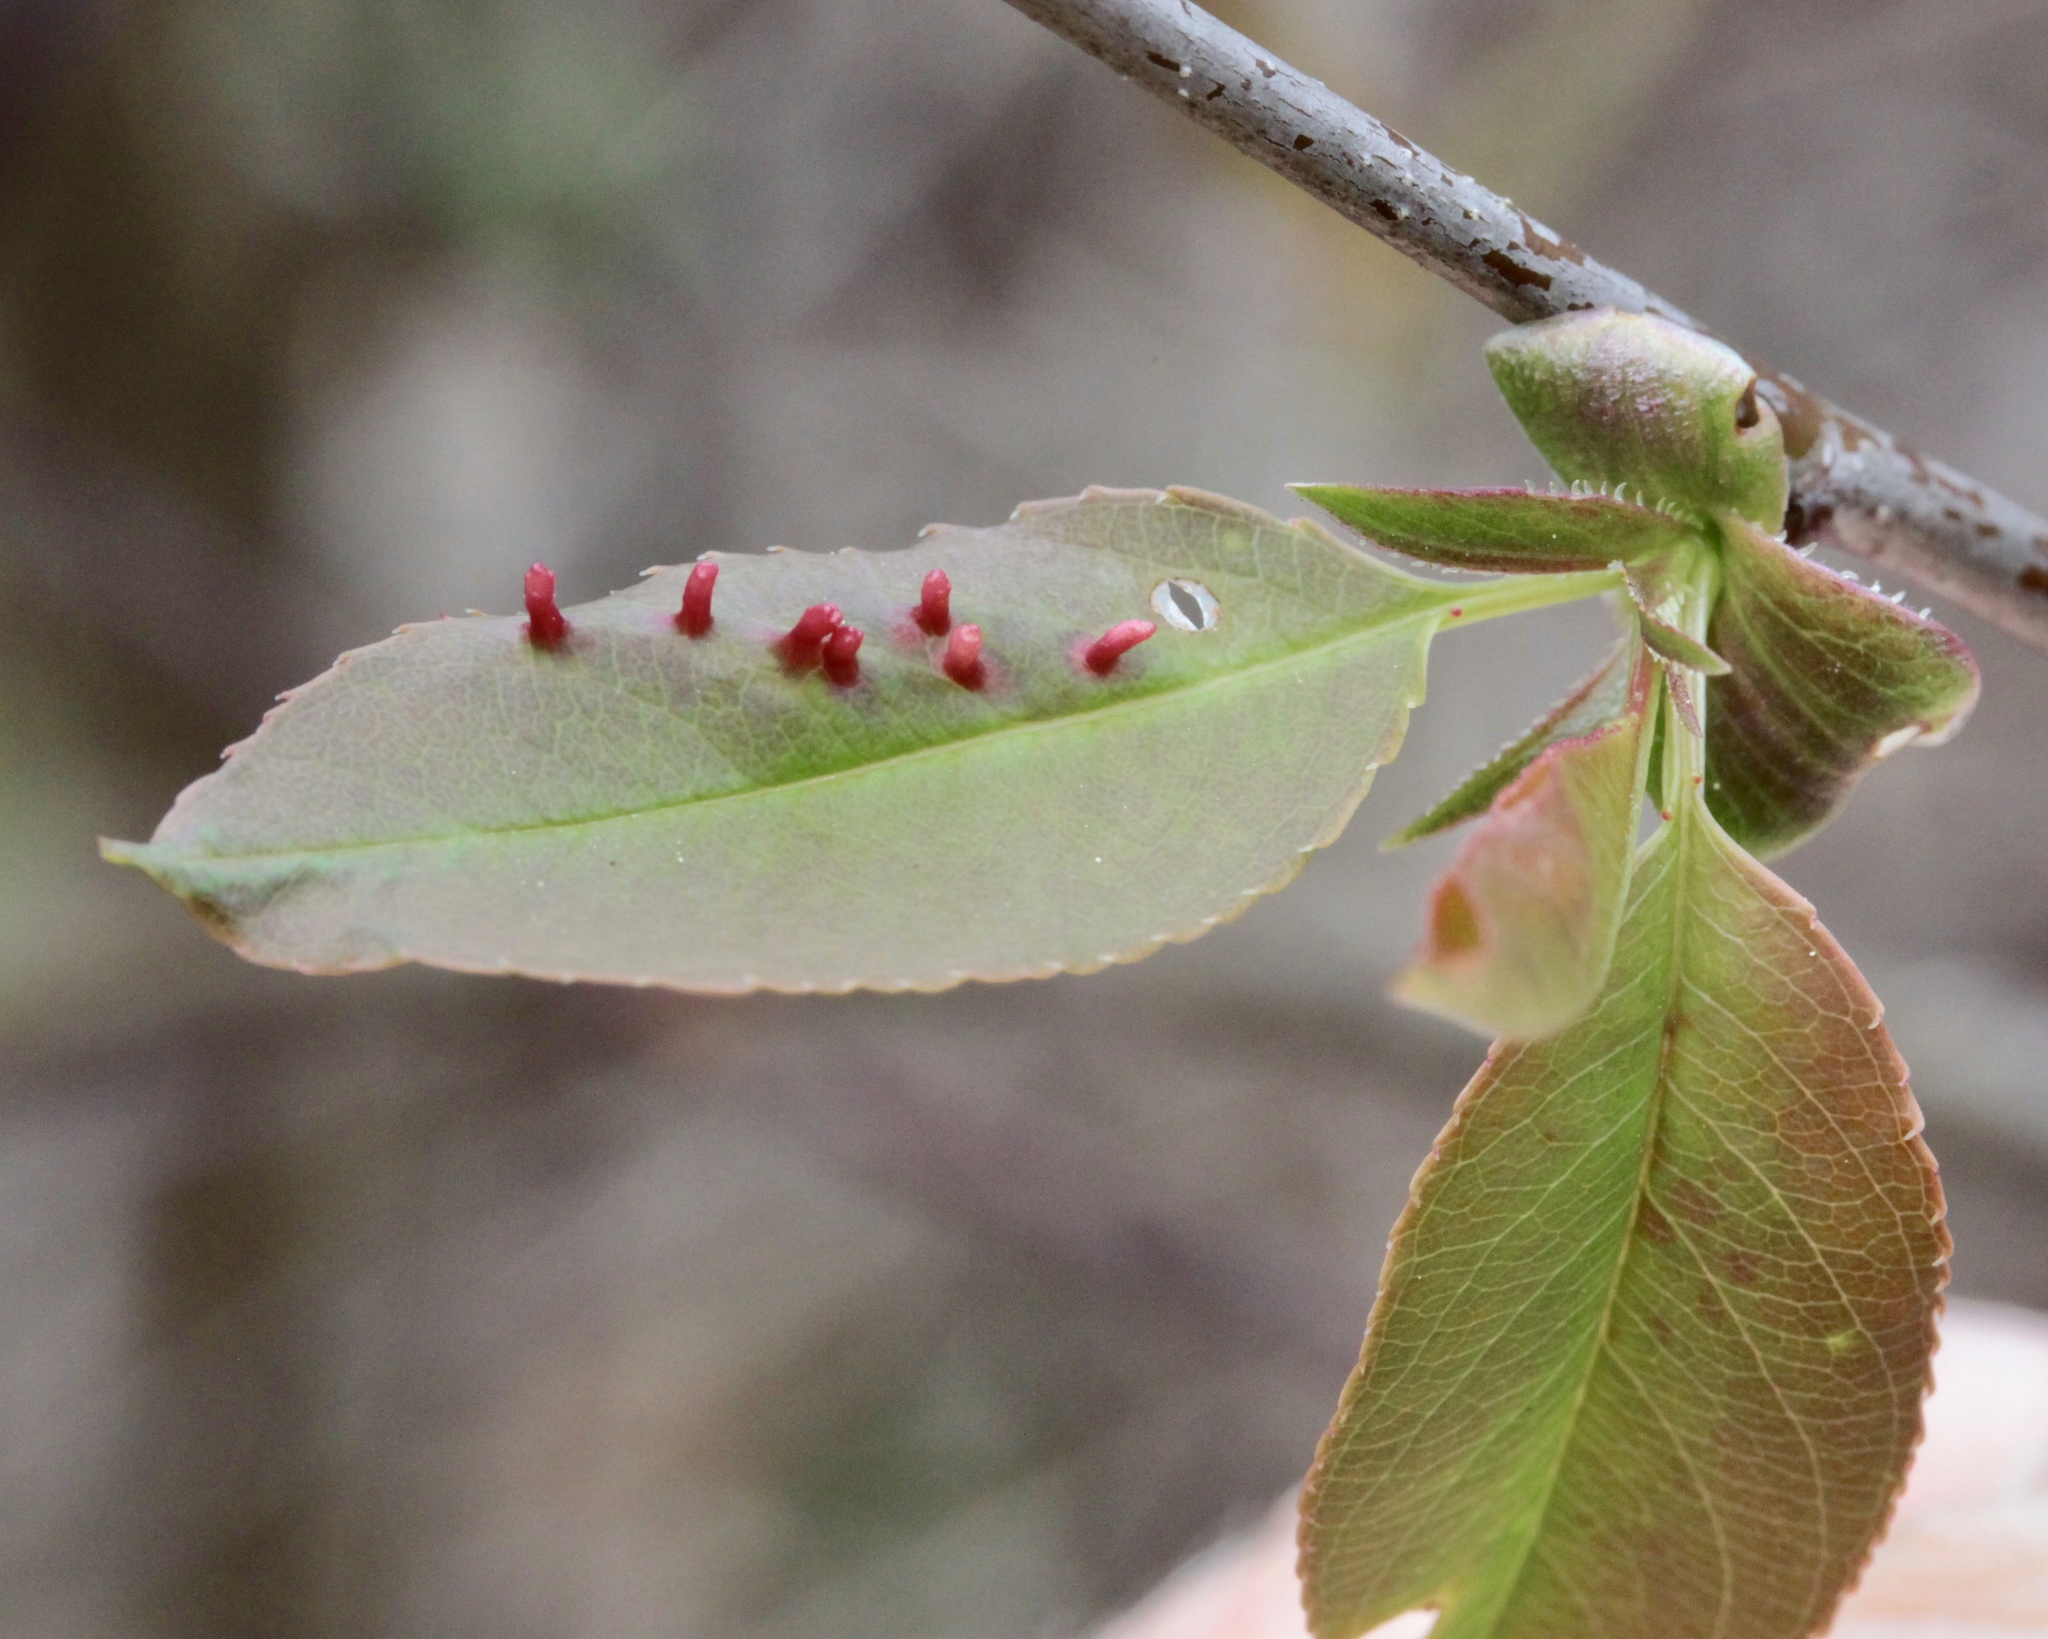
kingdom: Animalia
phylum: Arthropoda
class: Arachnida
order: Trombidiformes
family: Eriophyidae
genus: Eriophyes
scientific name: Eriophyes
